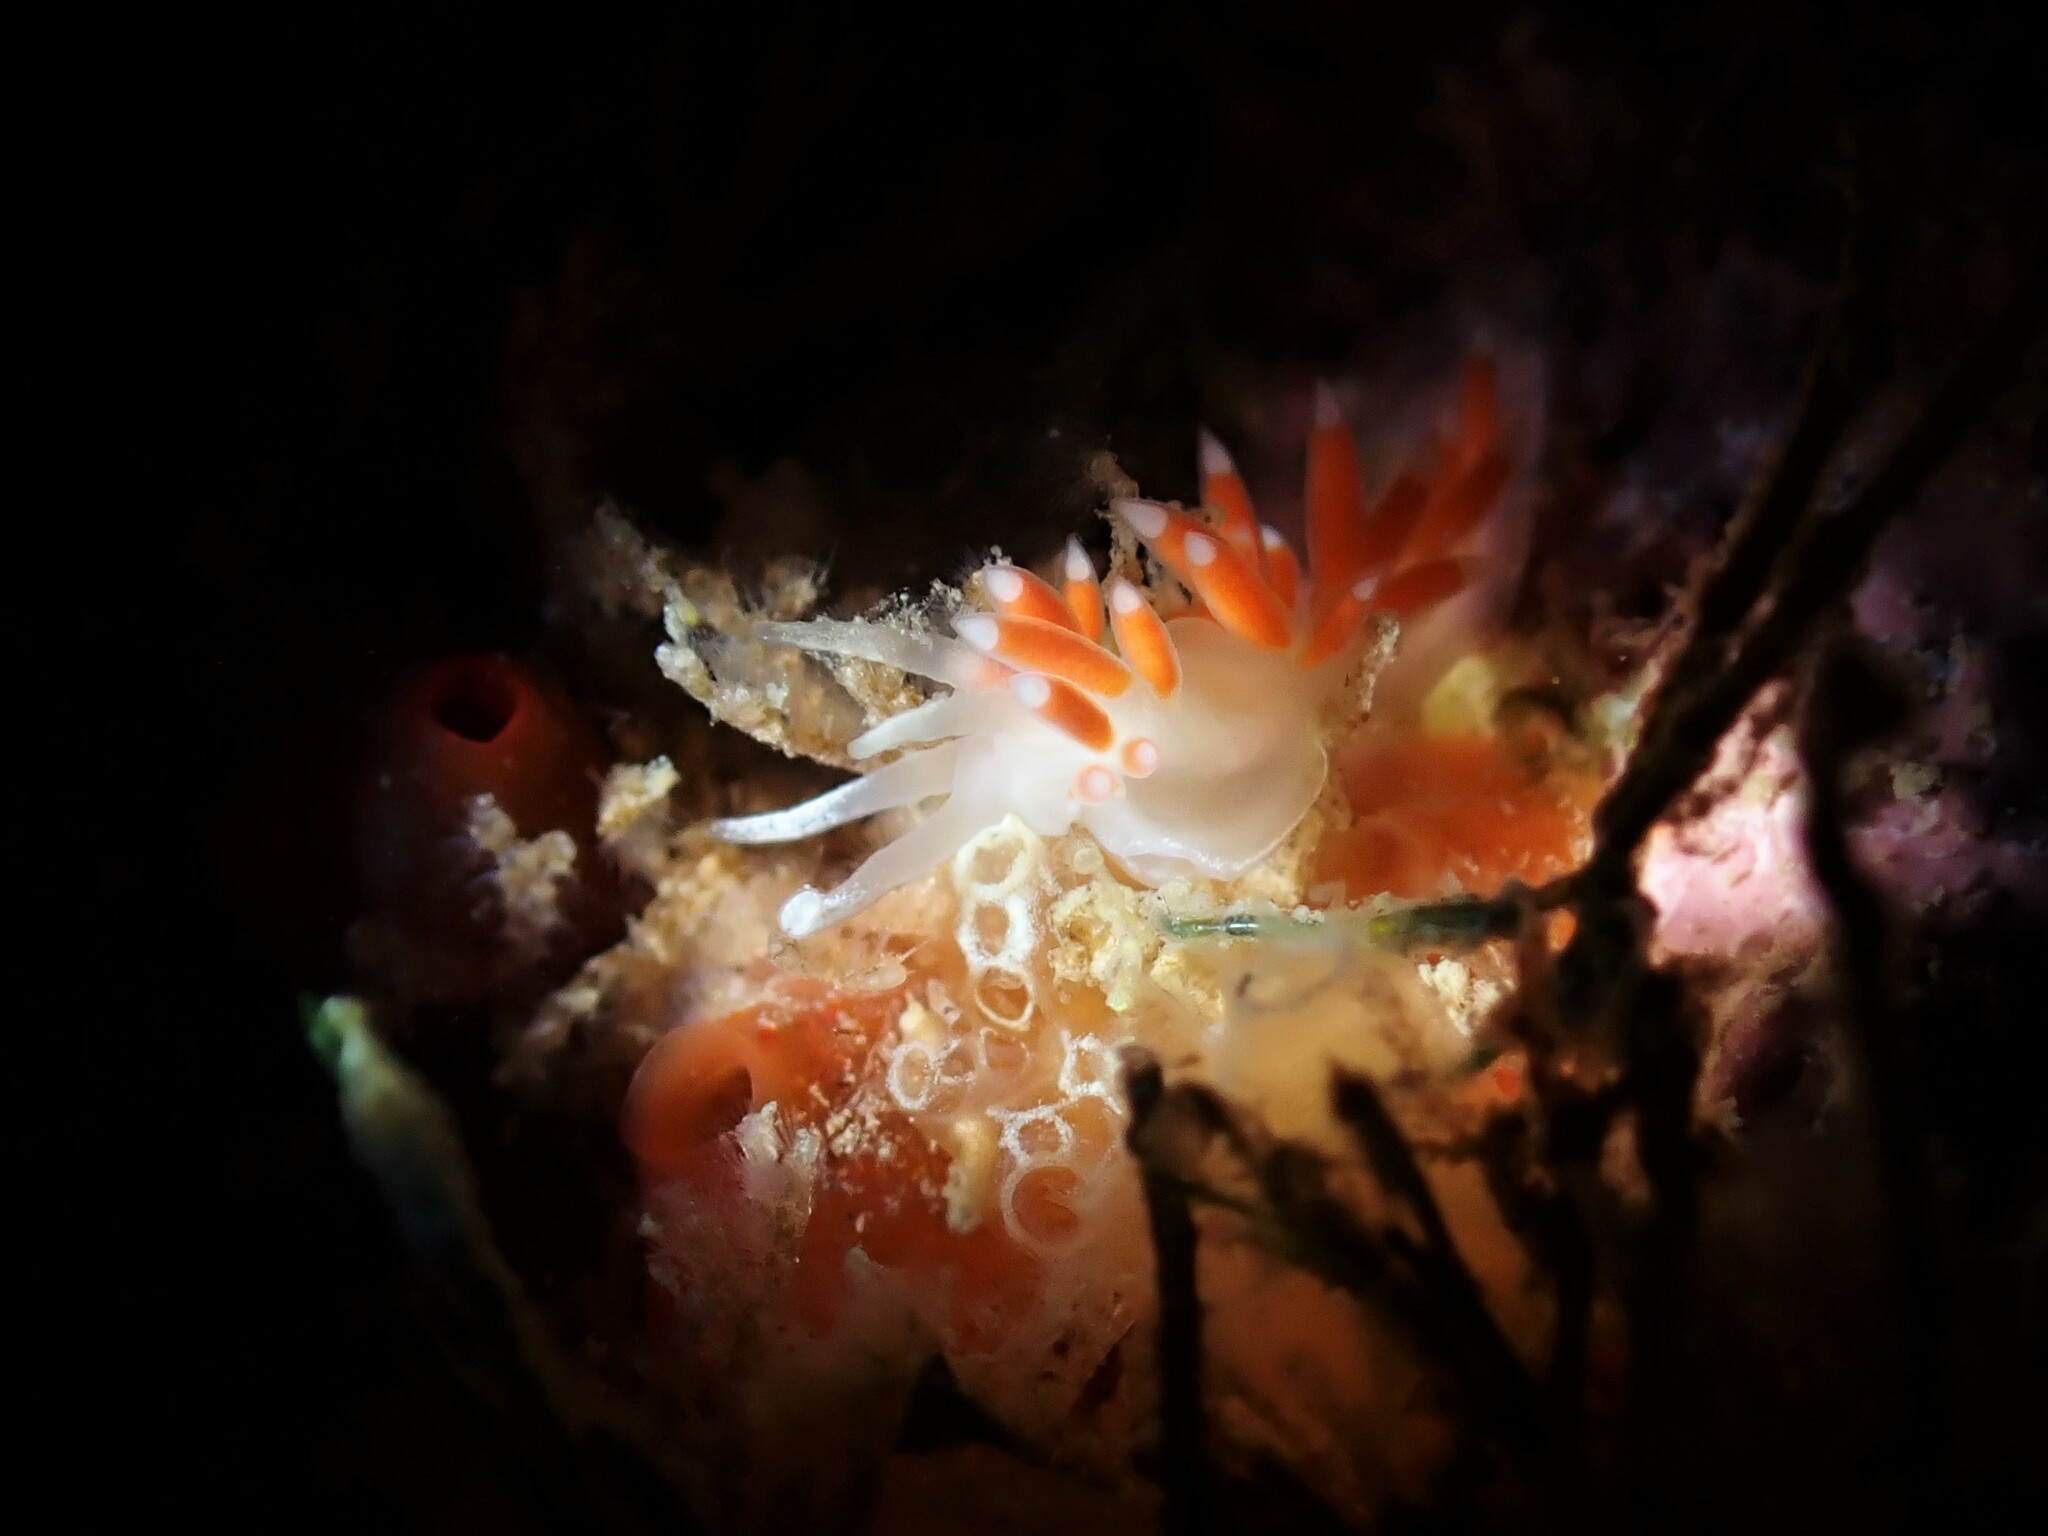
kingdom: Animalia
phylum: Mollusca
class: Gastropoda
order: Nudibranchia
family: Flabellinidae
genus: Coryphellina
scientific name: Coryphellina albomarginata
